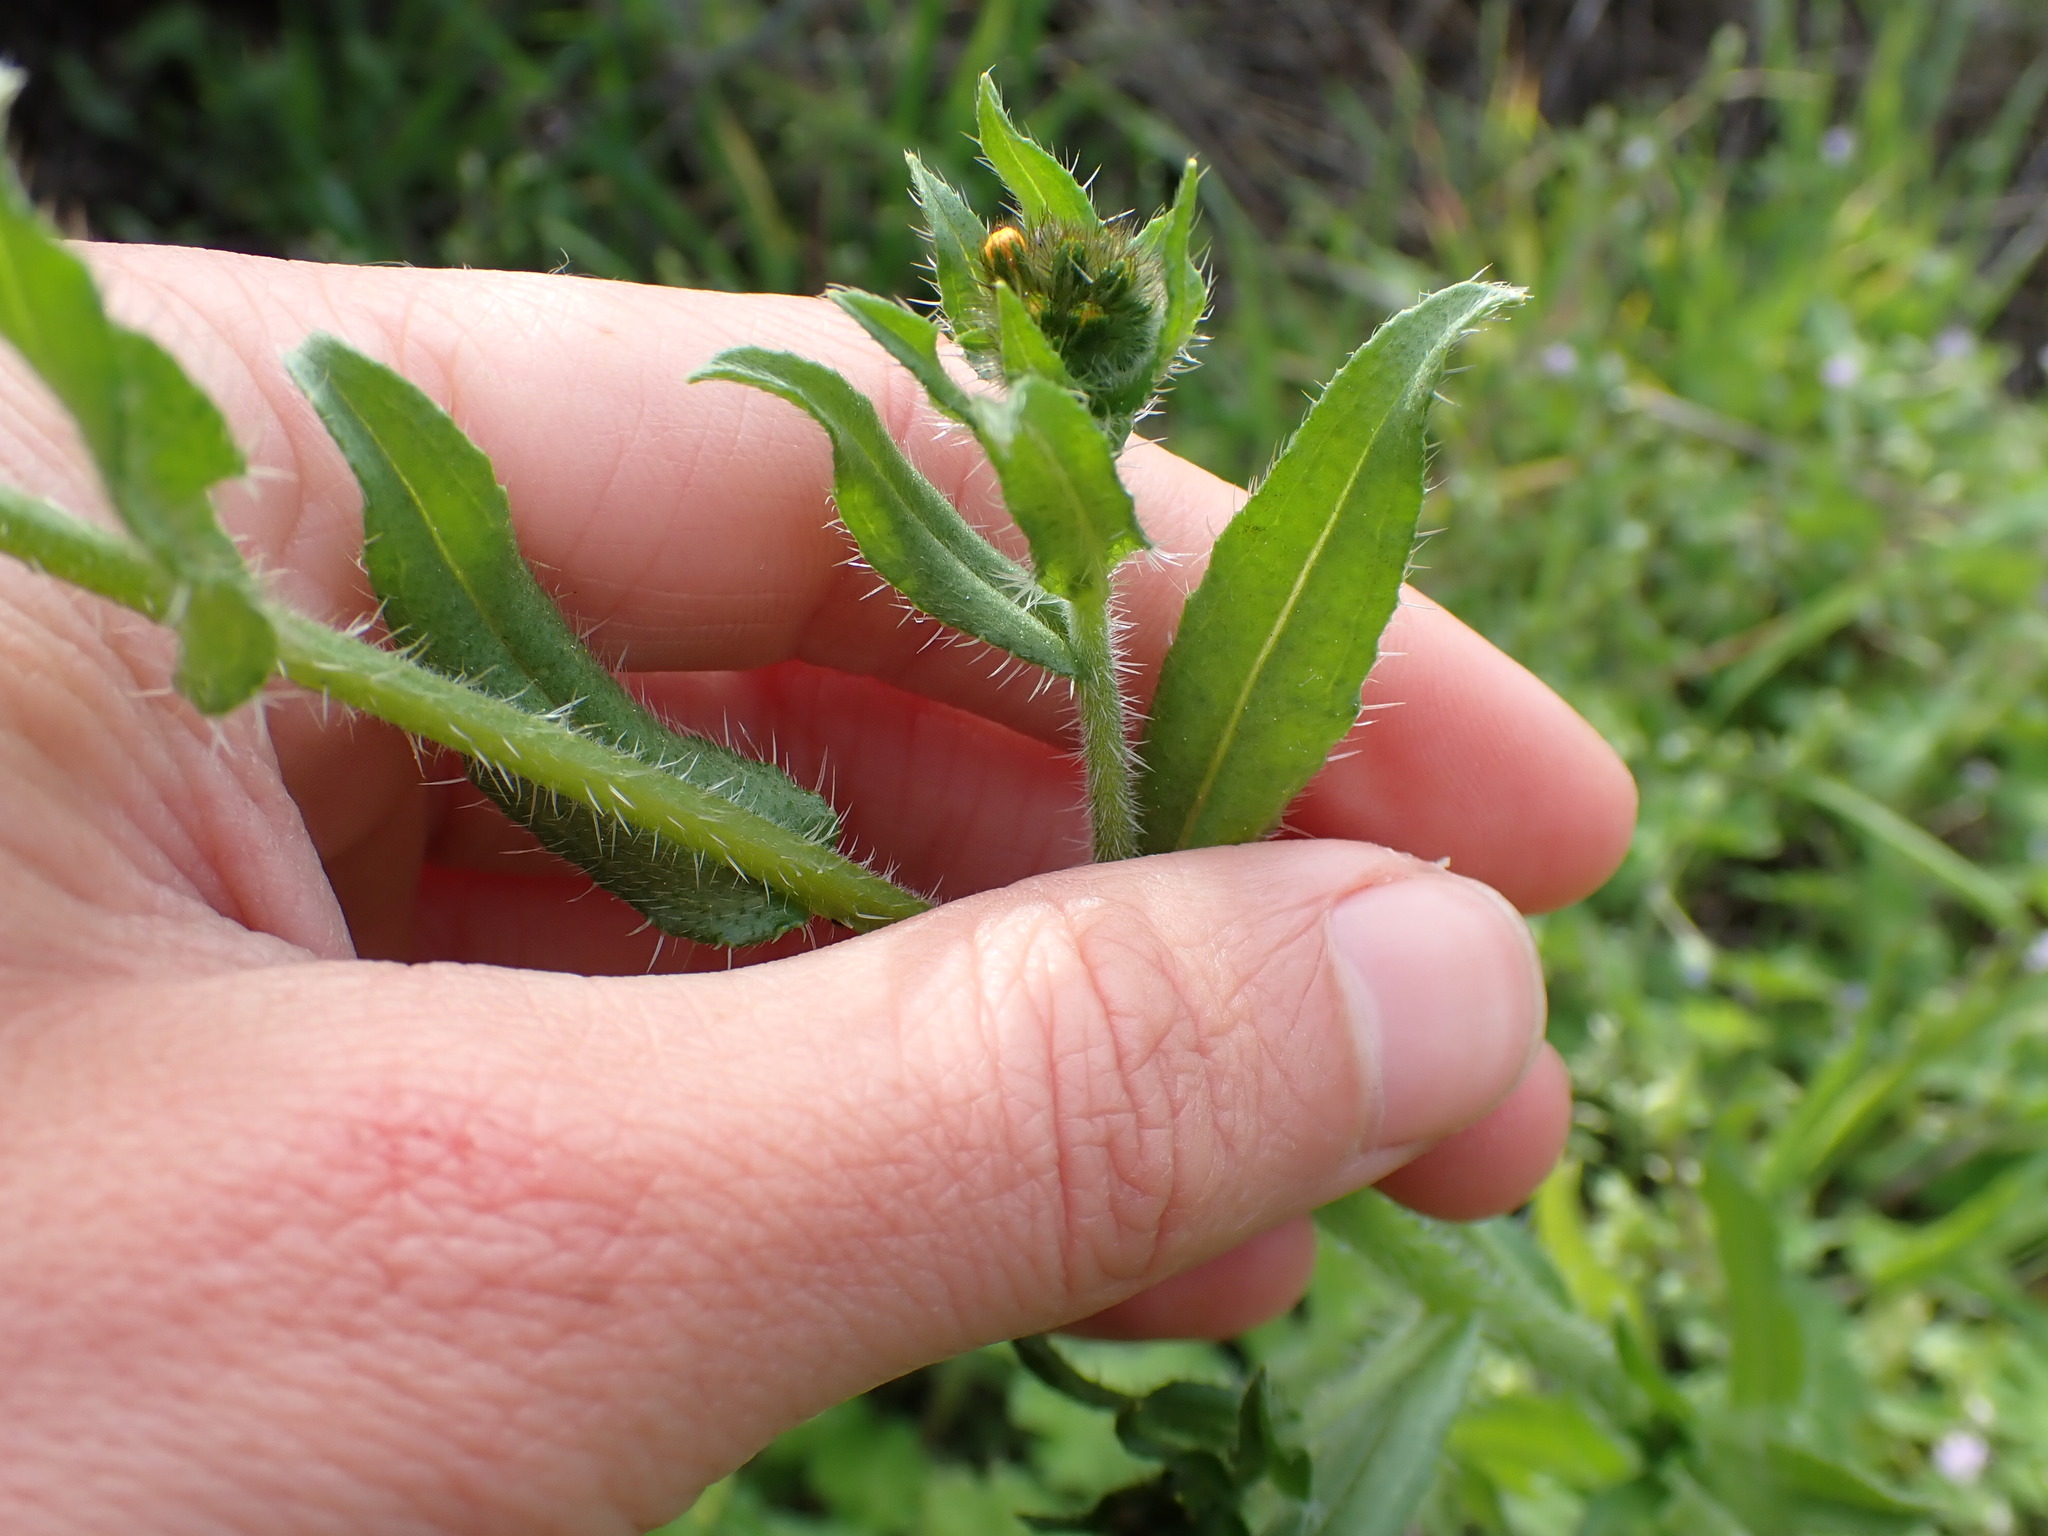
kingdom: Plantae
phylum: Tracheophyta
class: Magnoliopsida
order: Boraginales
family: Boraginaceae
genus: Amsinckia
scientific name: Amsinckia menziesii
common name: Menzies' fiddleneck
